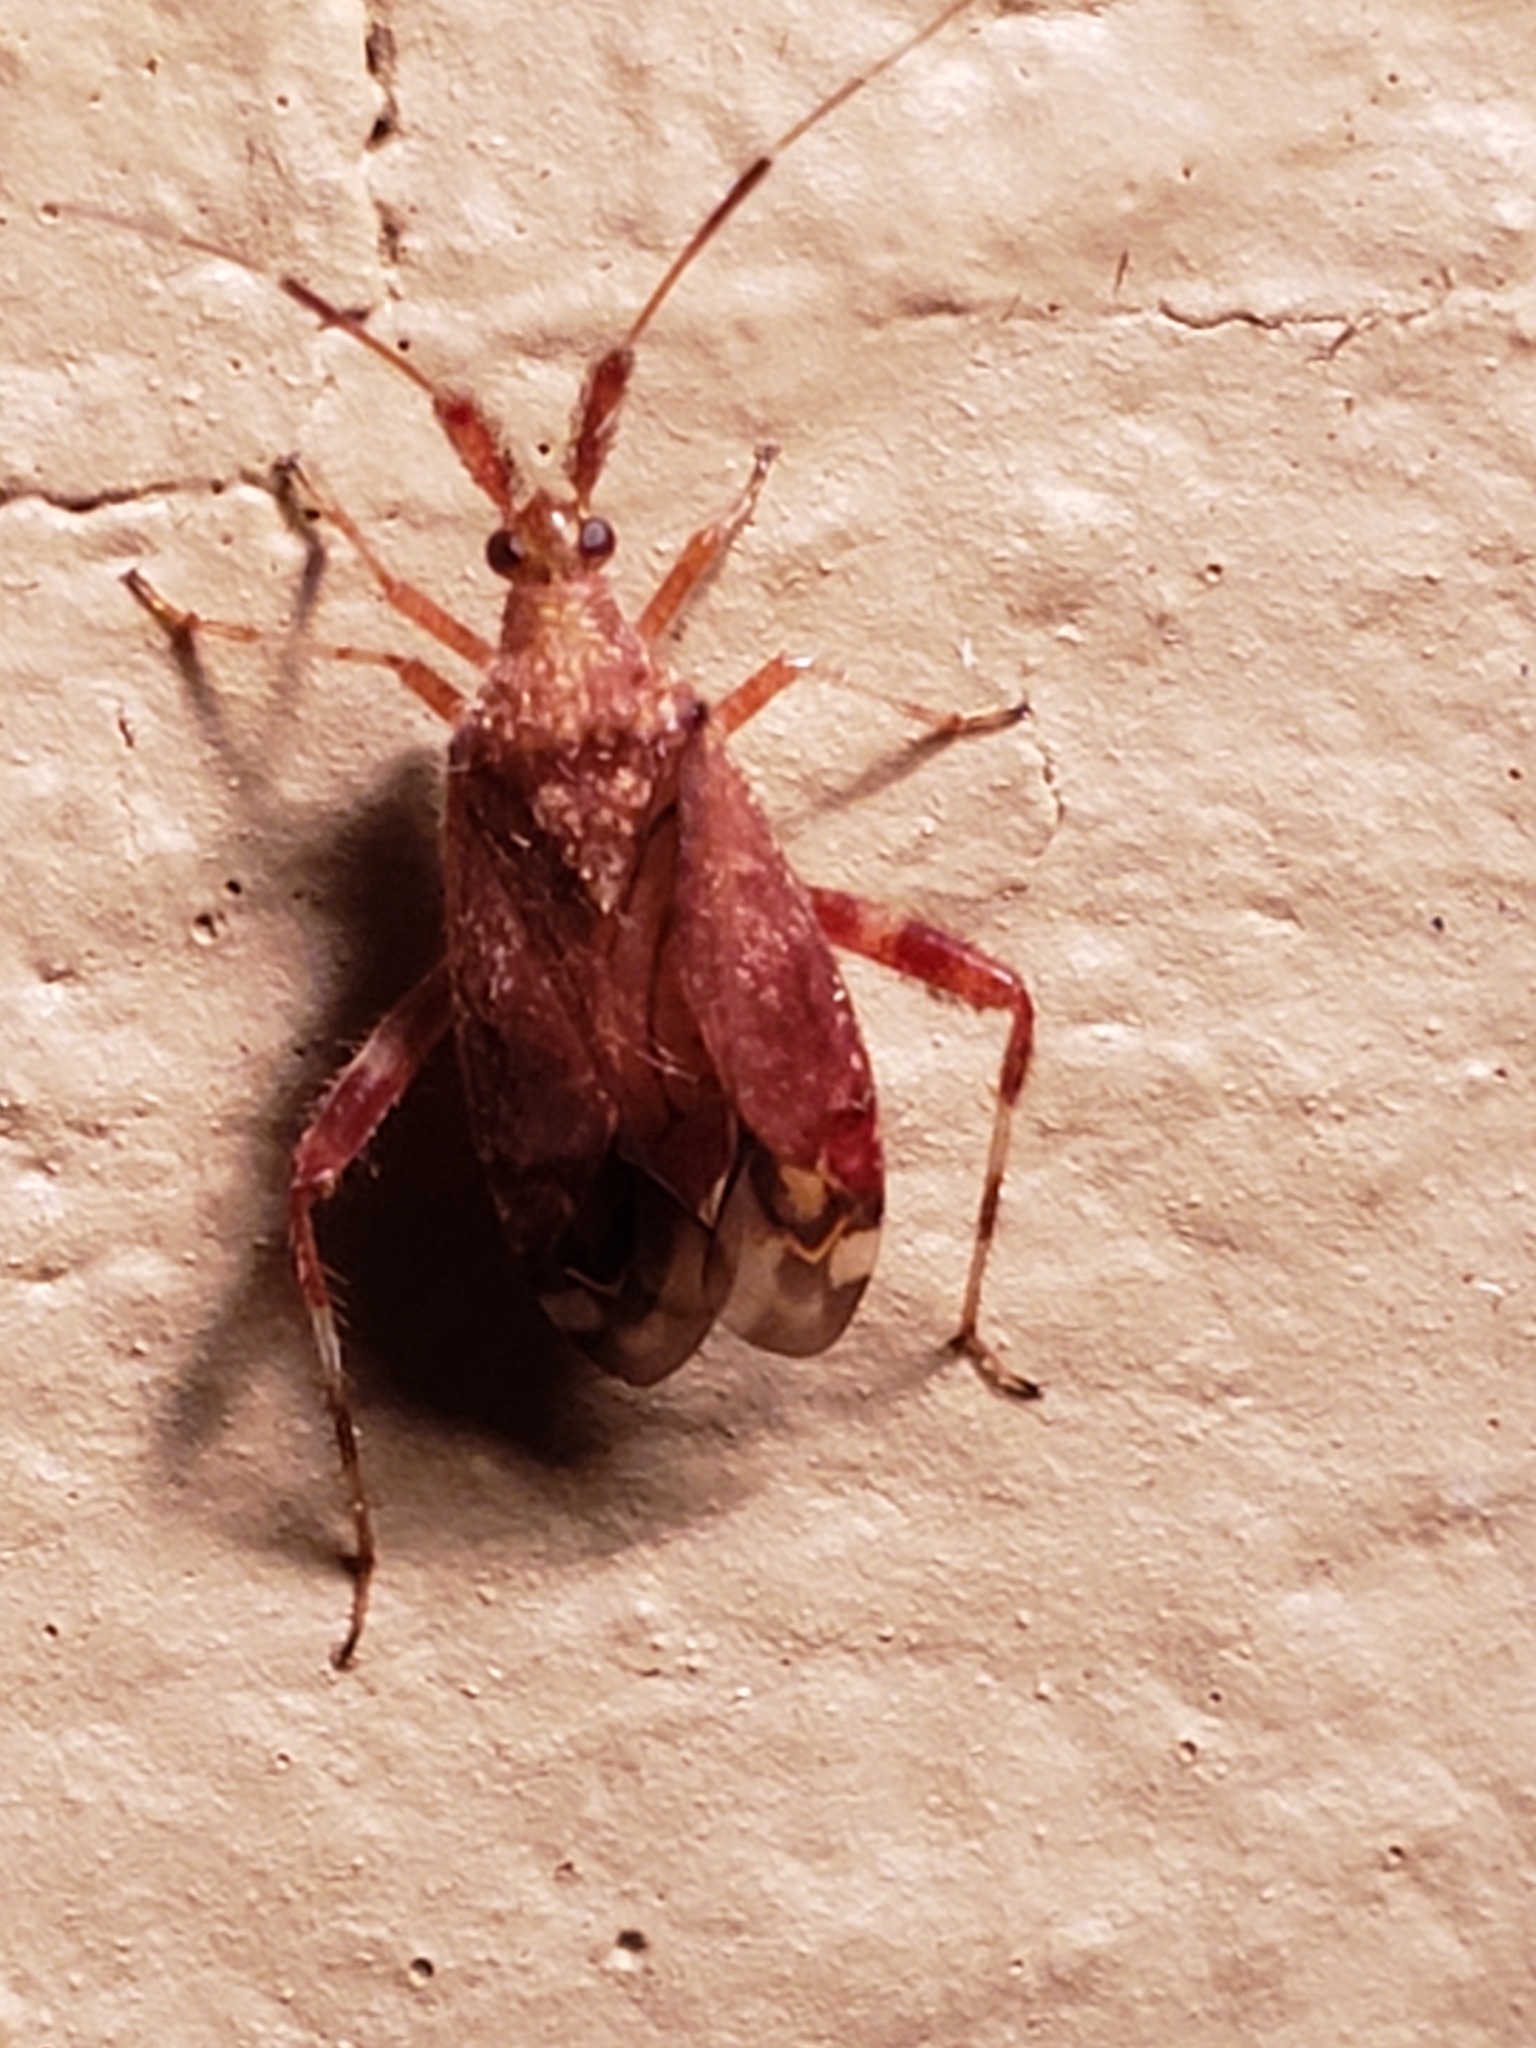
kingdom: Animalia
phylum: Arthropoda
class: Insecta
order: Hemiptera
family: Miridae
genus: Neurocolpus
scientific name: Neurocolpus nubilus
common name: Clouded plant bug
